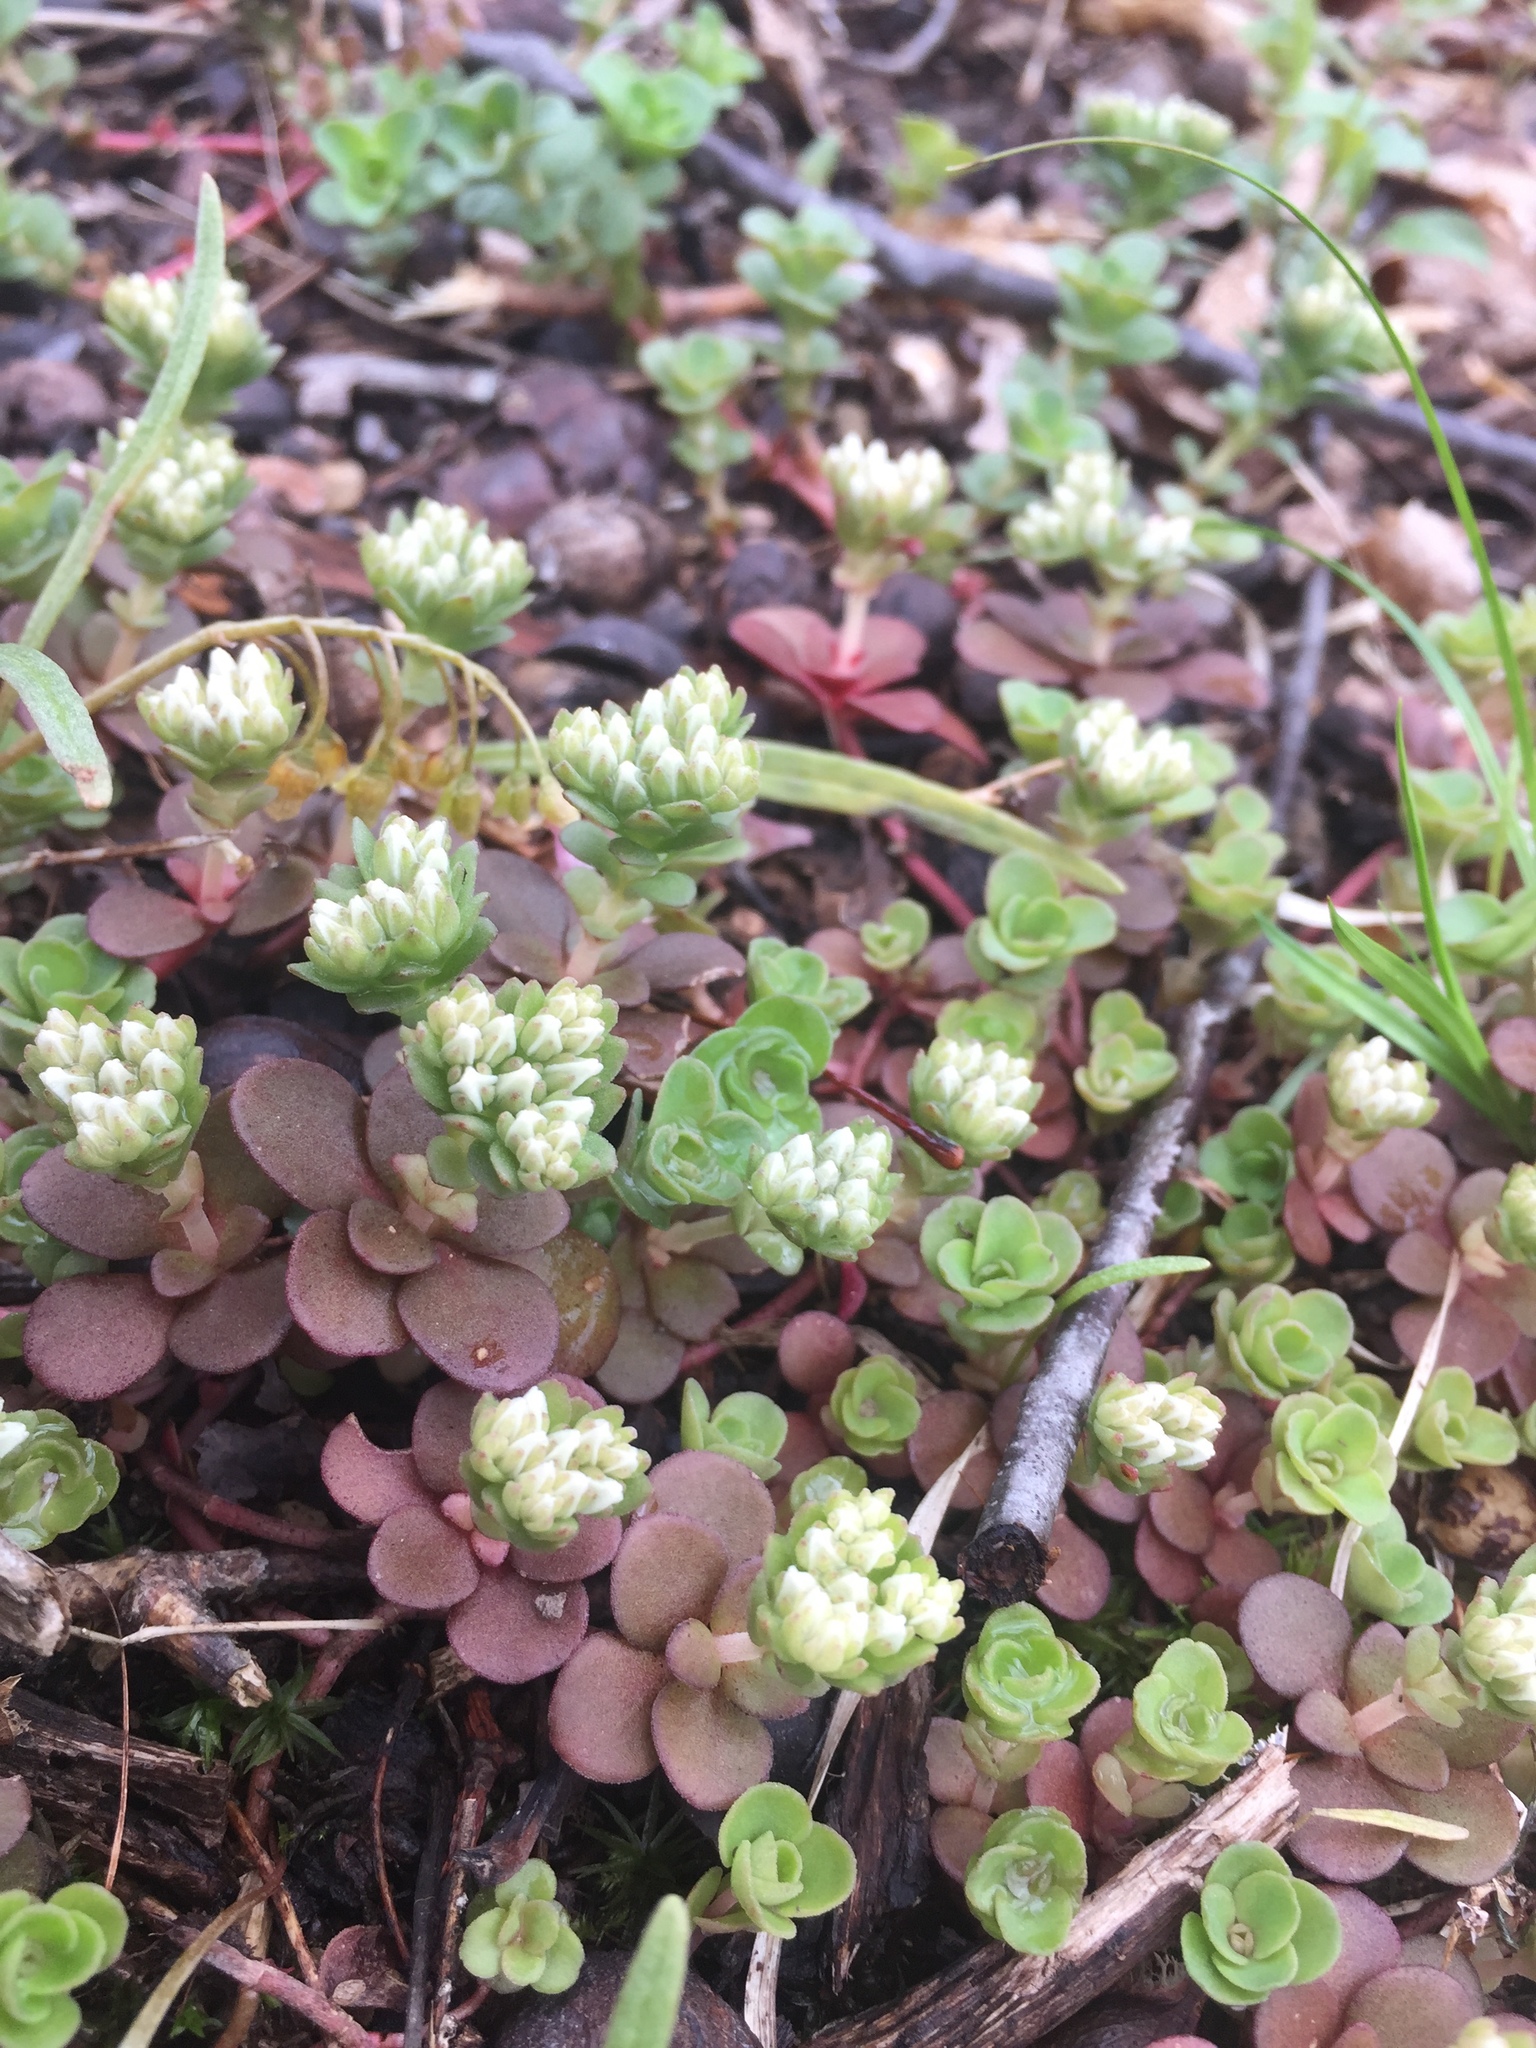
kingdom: Plantae
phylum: Tracheophyta
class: Magnoliopsida
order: Saxifragales
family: Crassulaceae
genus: Sedum
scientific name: Sedum ternatum
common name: Wild stonecrop
